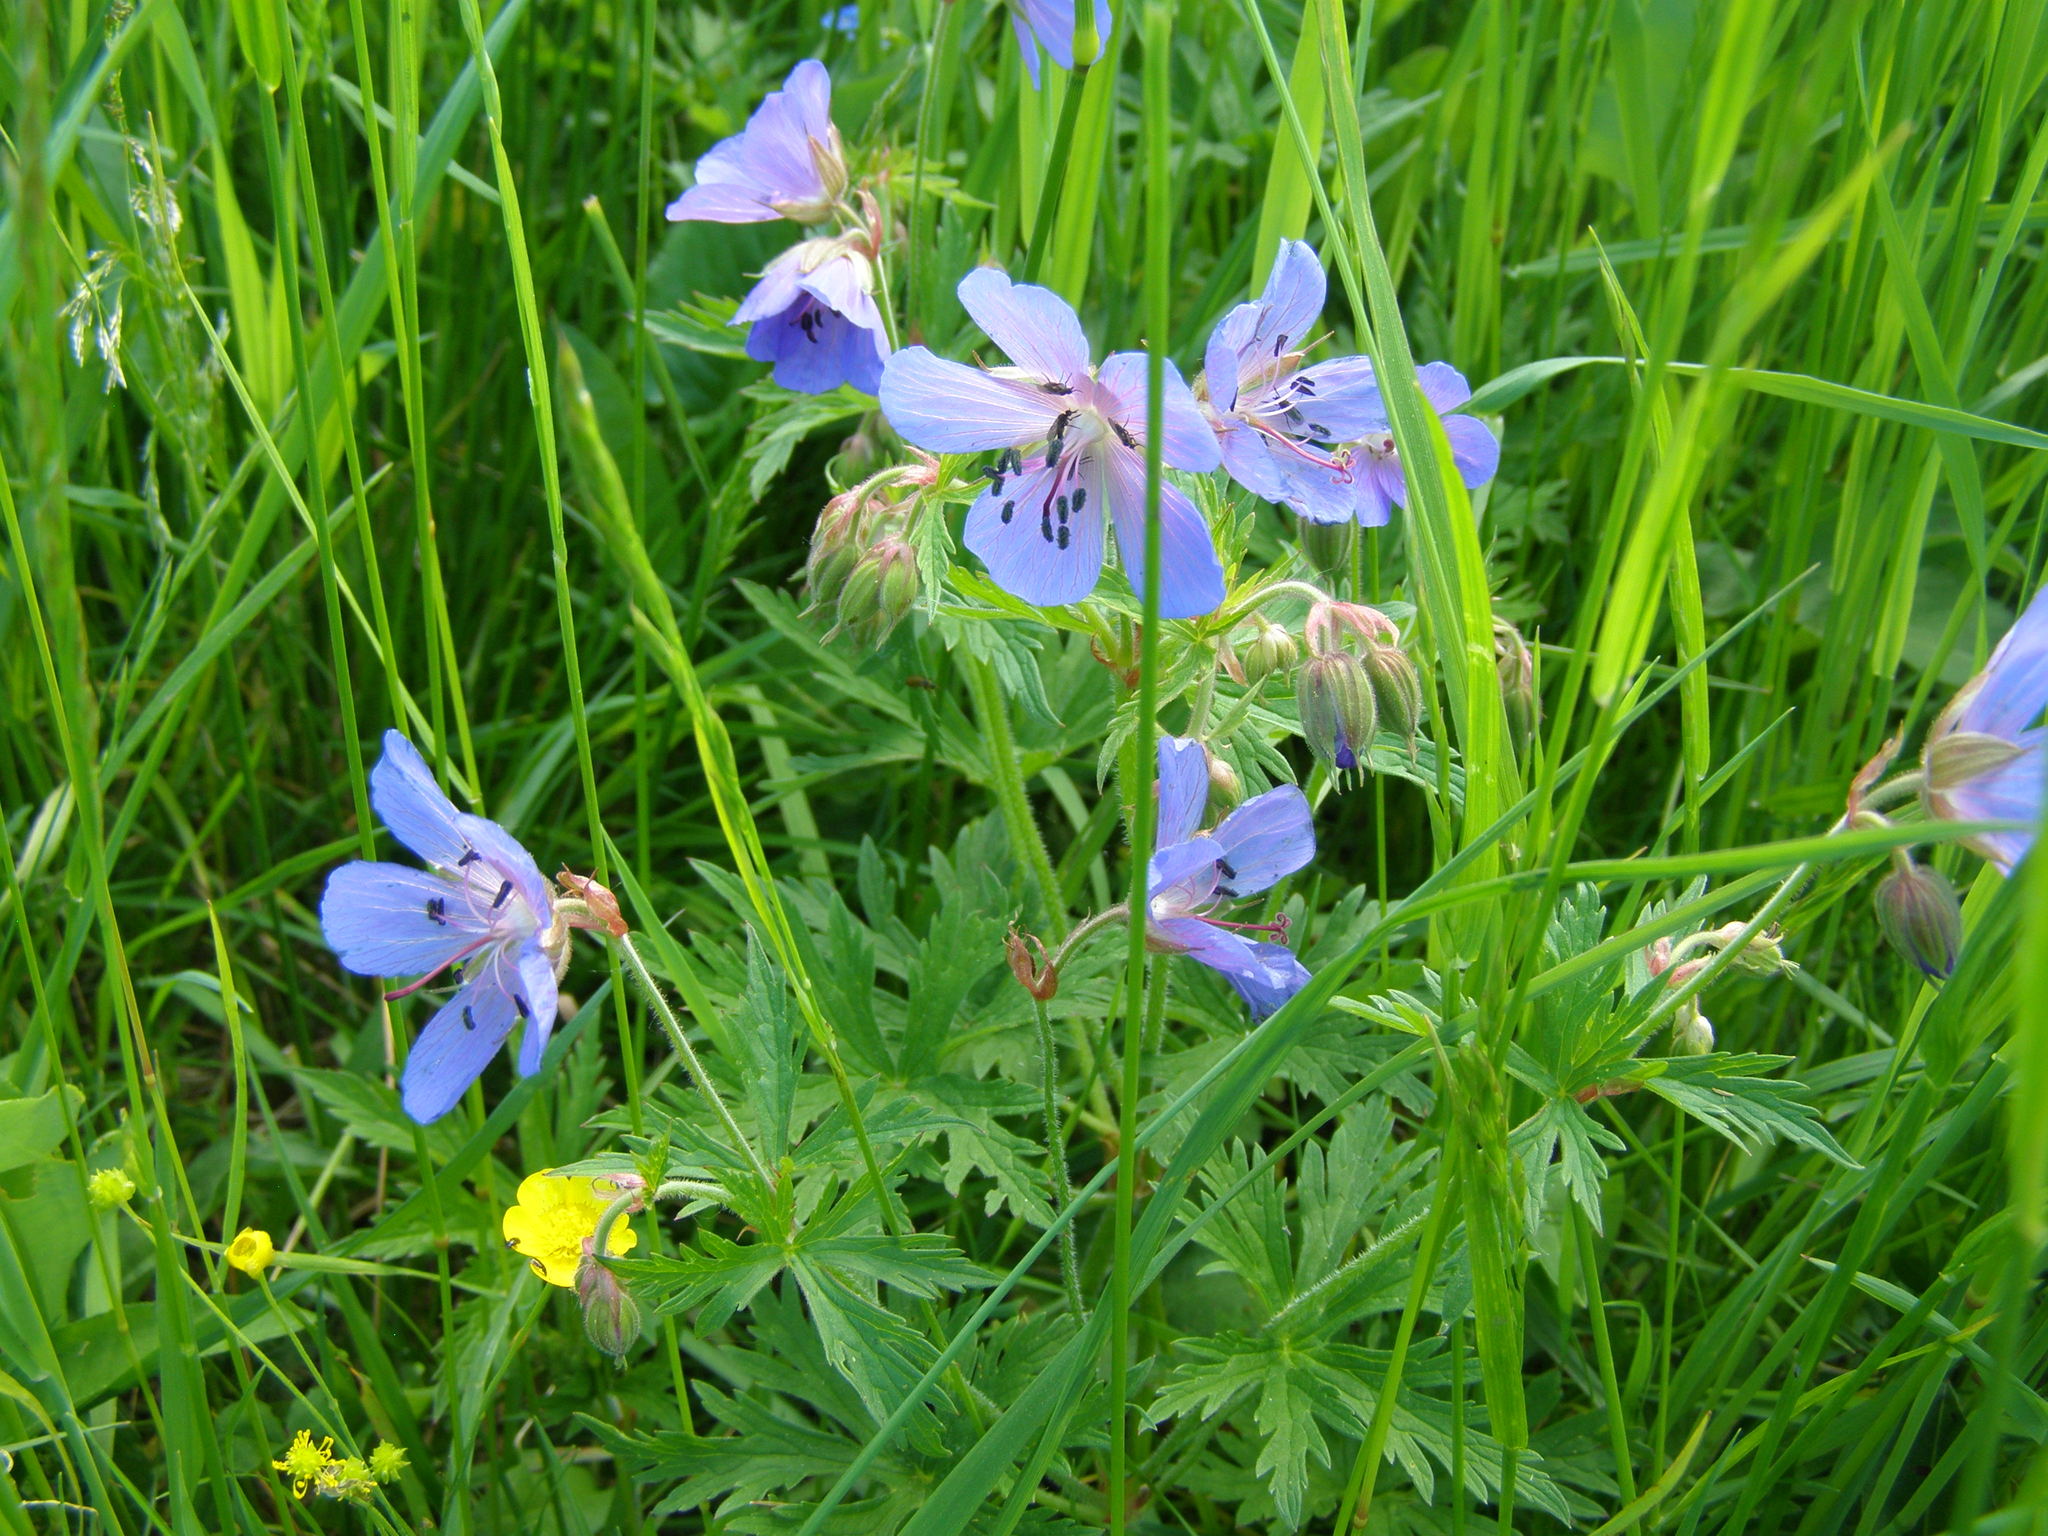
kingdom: Plantae
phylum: Tracheophyta
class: Magnoliopsida
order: Geraniales
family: Geraniaceae
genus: Geranium
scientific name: Geranium pratense
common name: Meadow crane's-bill
